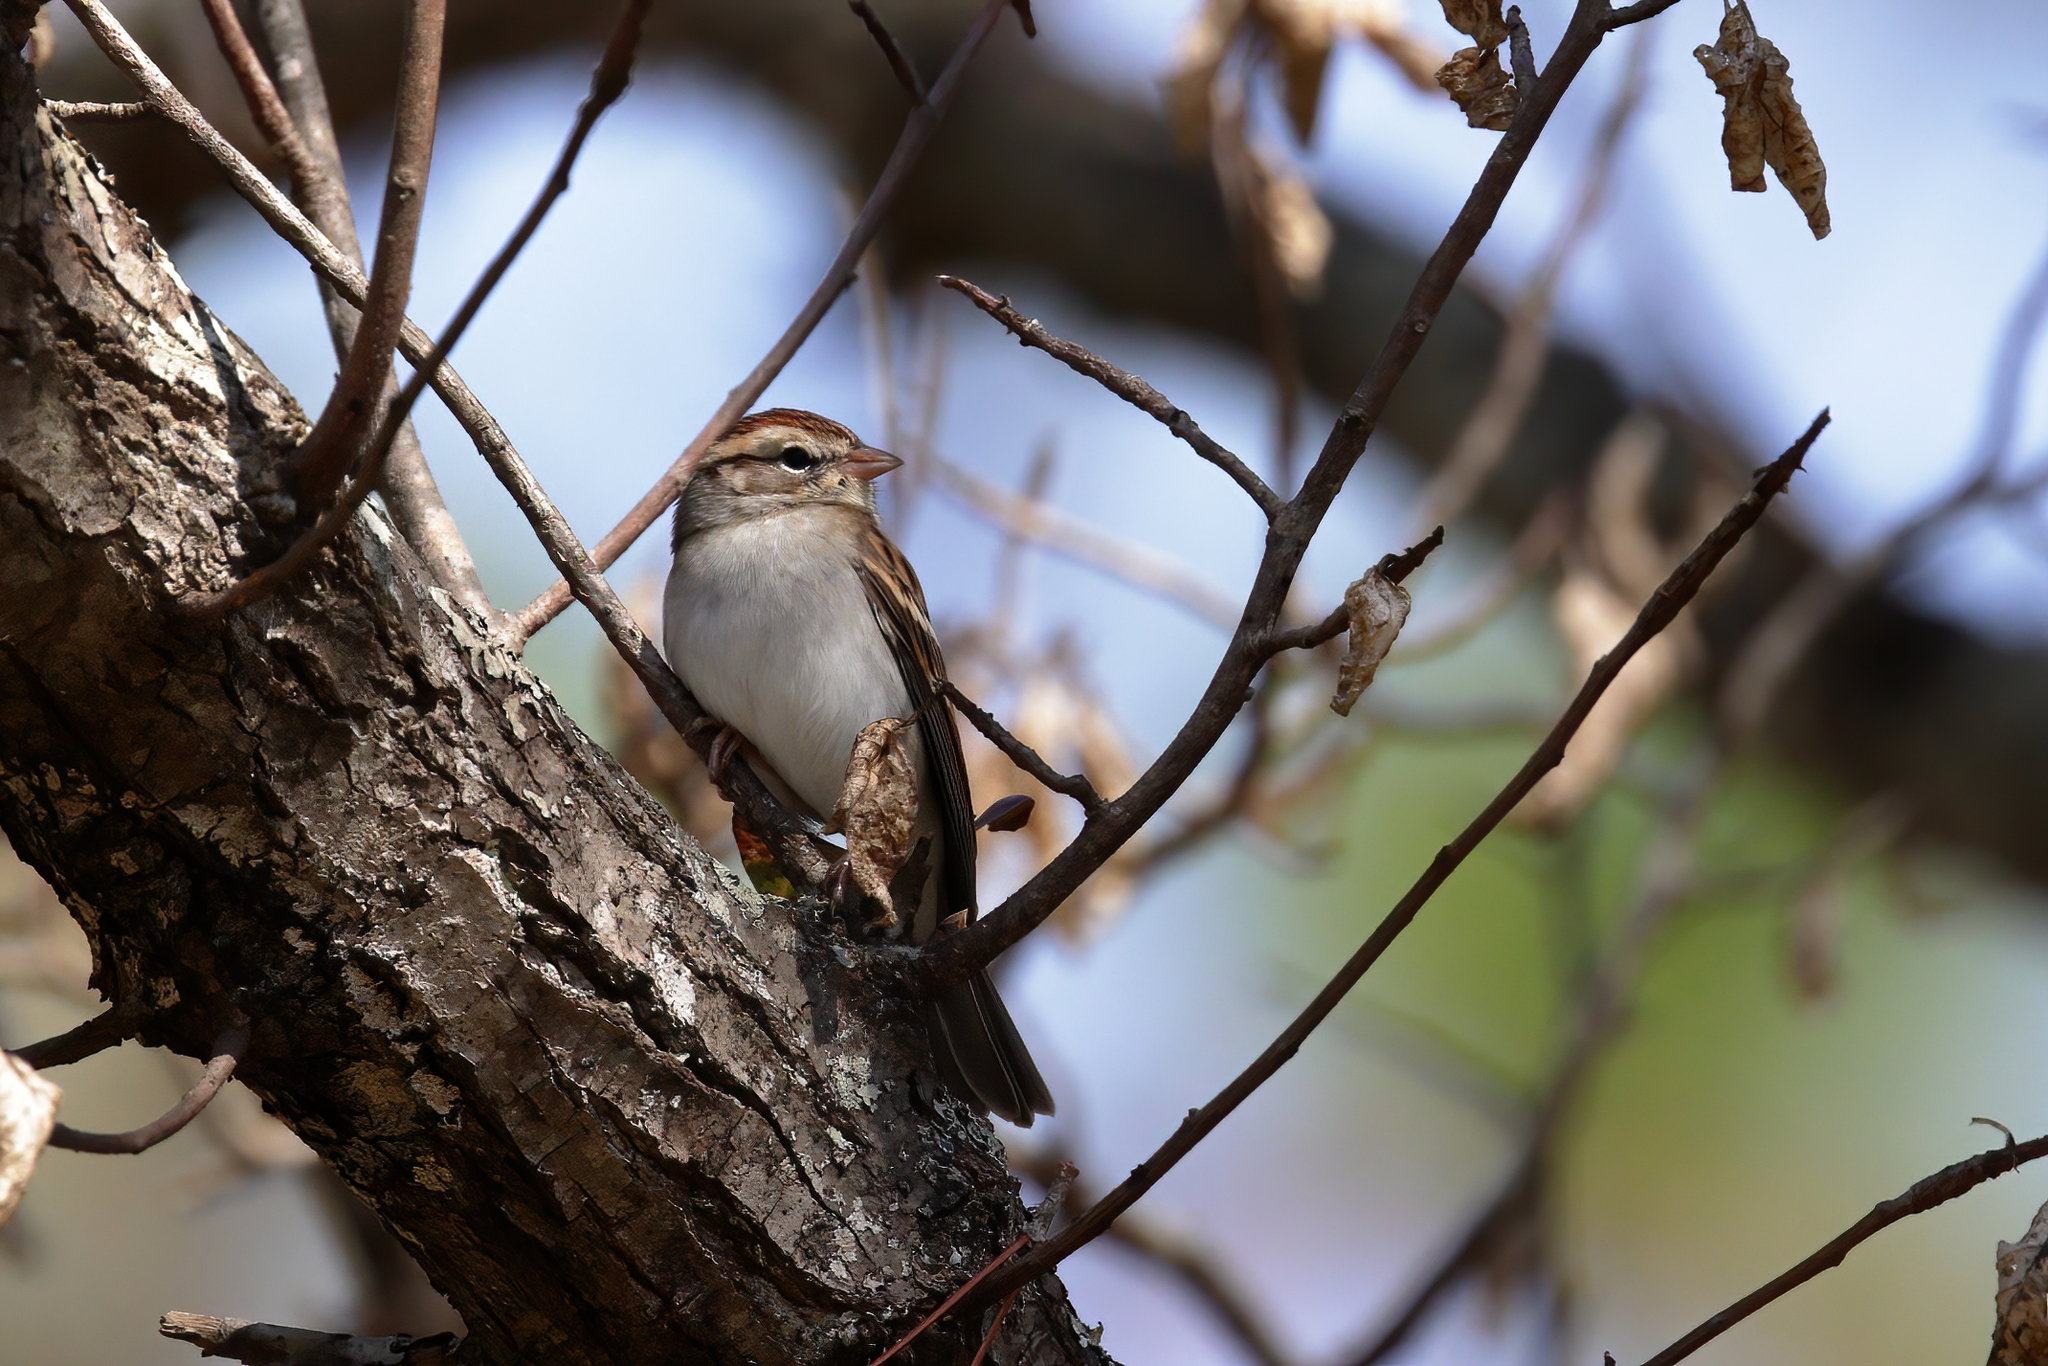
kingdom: Animalia
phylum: Chordata
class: Aves
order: Passeriformes
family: Passerellidae
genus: Spizella
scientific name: Spizella passerina
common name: Chipping sparrow
